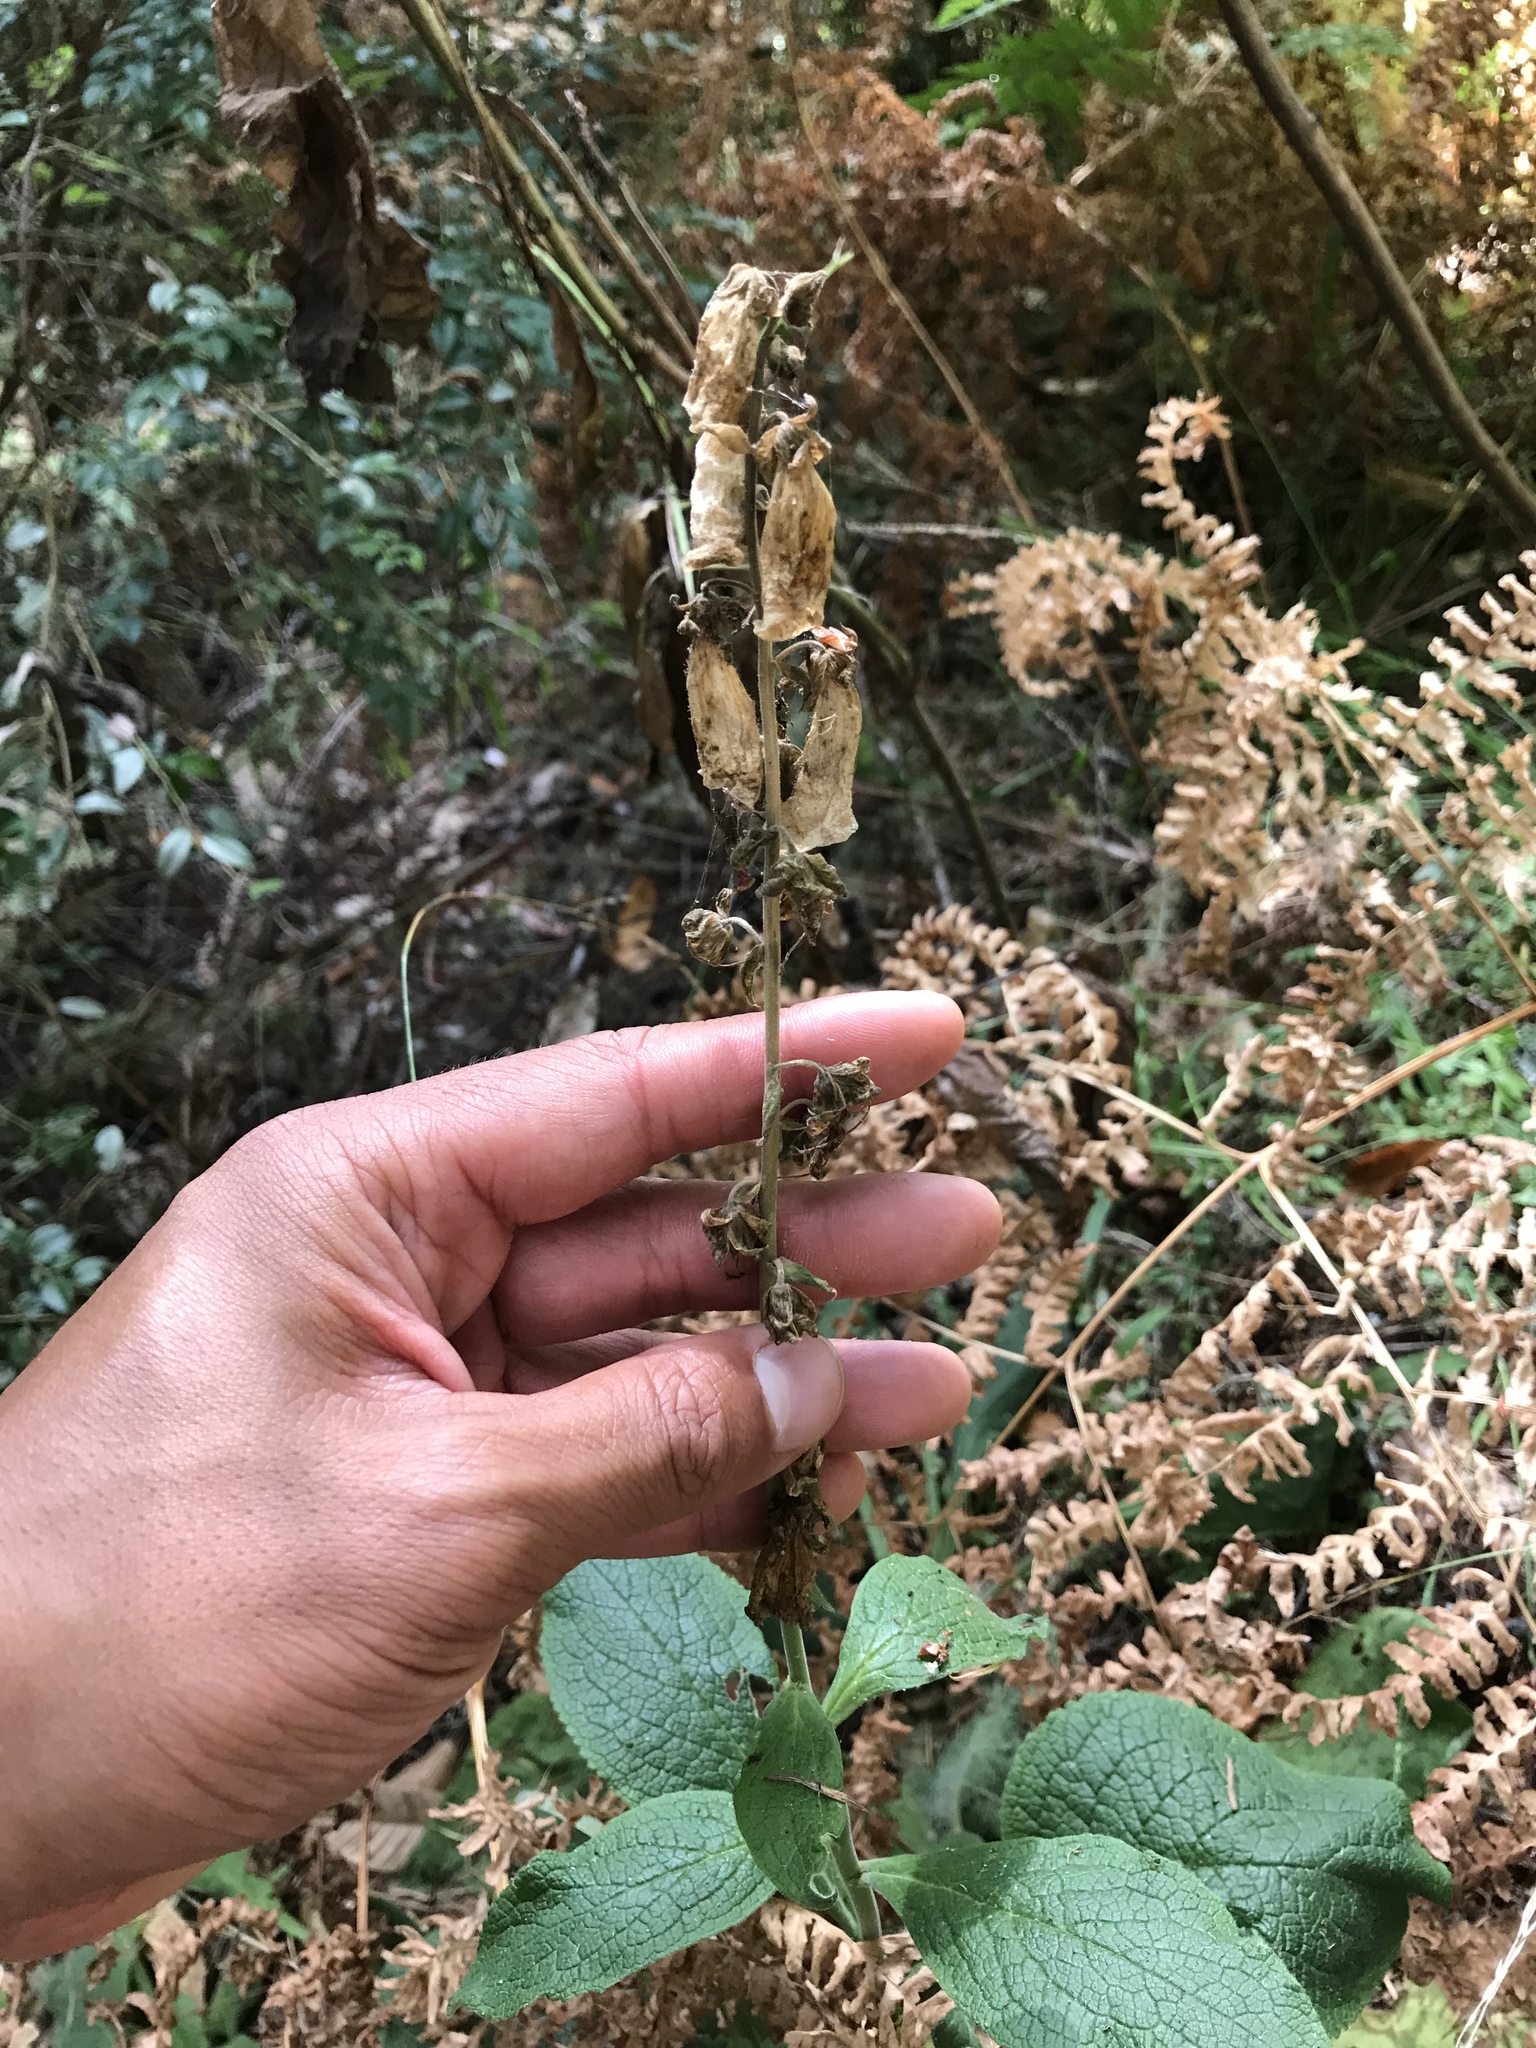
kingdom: Plantae
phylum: Tracheophyta
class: Magnoliopsida
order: Lamiales
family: Plantaginaceae
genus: Digitalis
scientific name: Digitalis purpurea
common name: Foxglove
